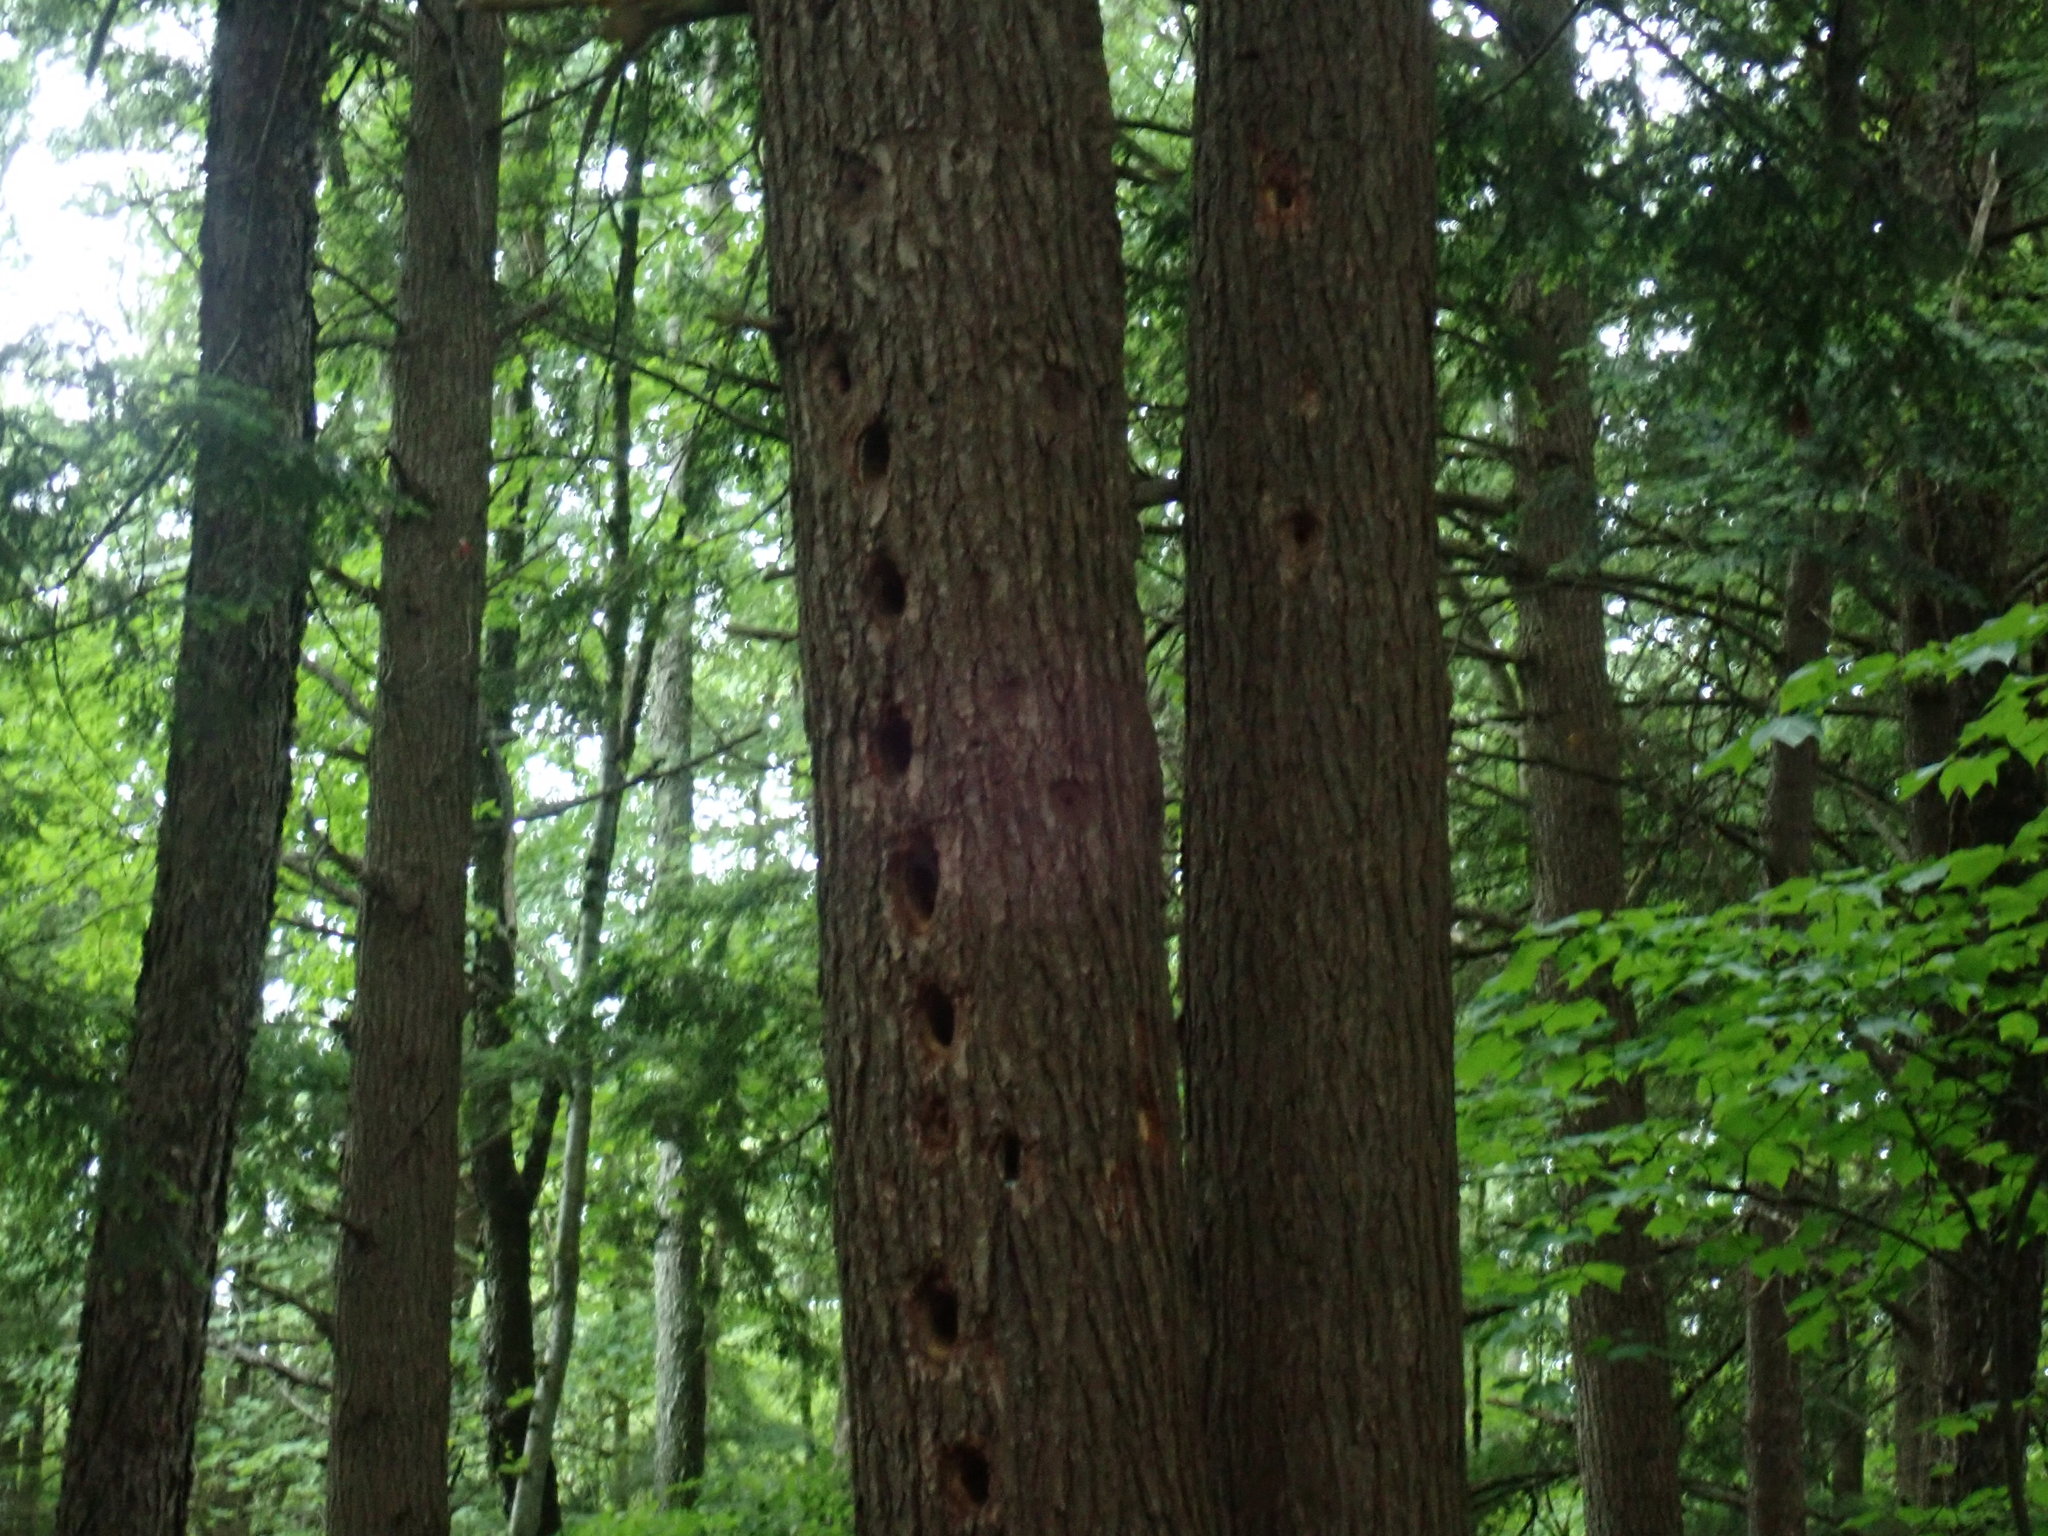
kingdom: Animalia
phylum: Chordata
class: Aves
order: Piciformes
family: Picidae
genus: Dryocopus
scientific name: Dryocopus pileatus
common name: Pileated woodpecker
